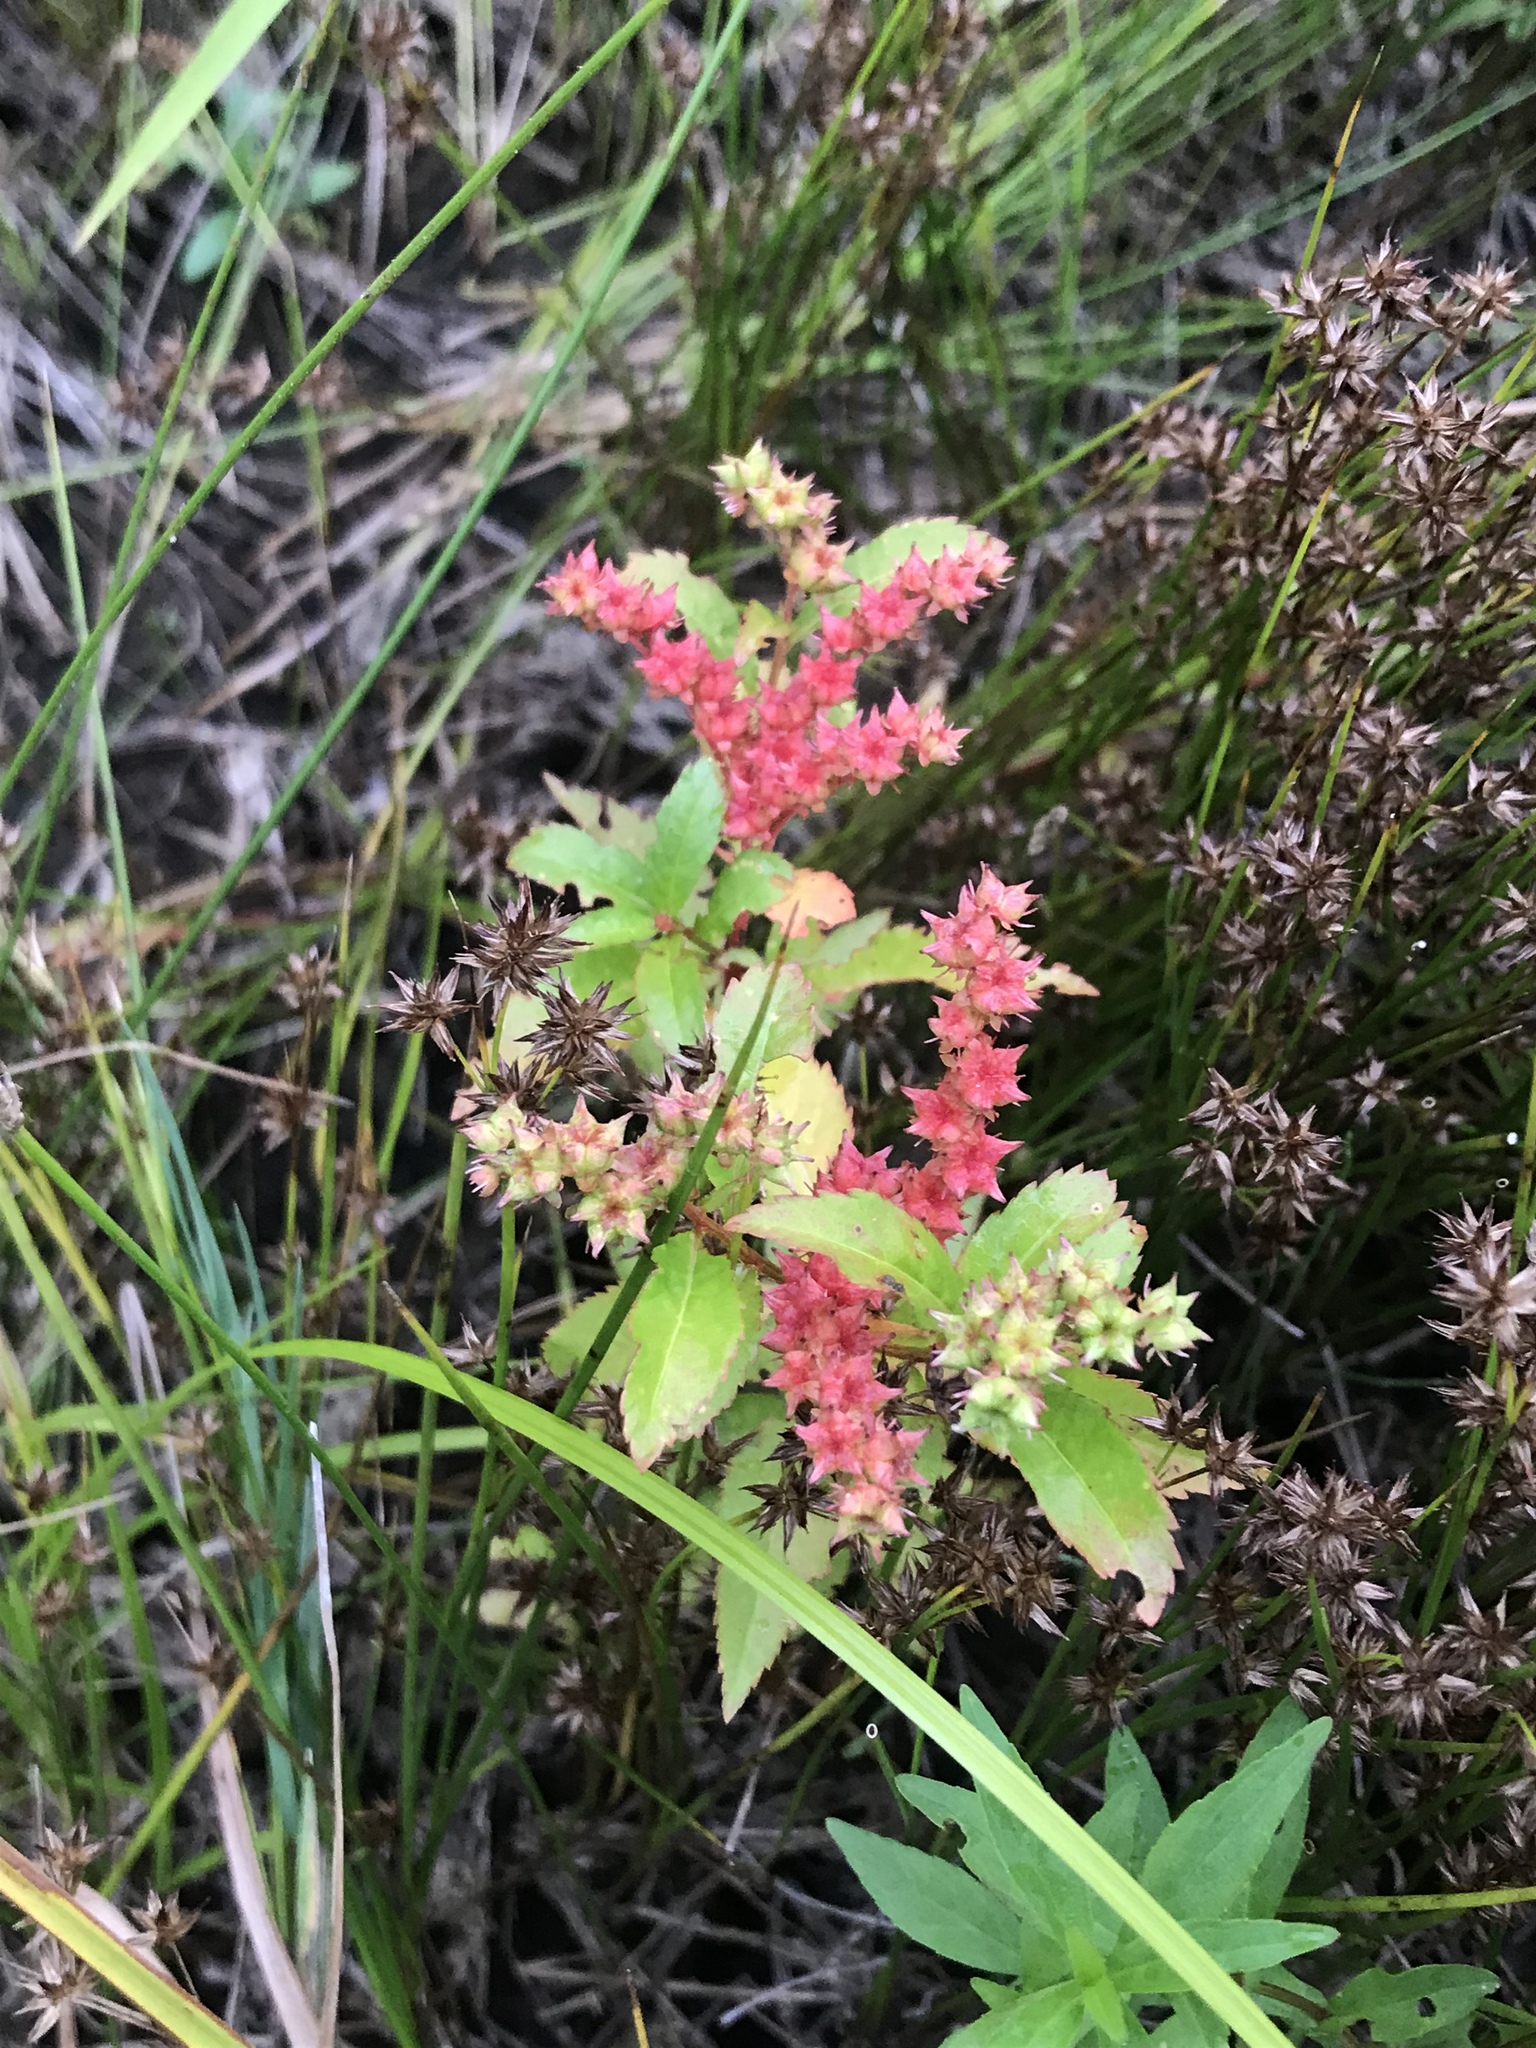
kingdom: Plantae
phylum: Tracheophyta
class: Magnoliopsida
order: Saxifragales
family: Penthoraceae
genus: Penthorum
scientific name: Penthorum sedoides
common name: Ditch stonecrop
